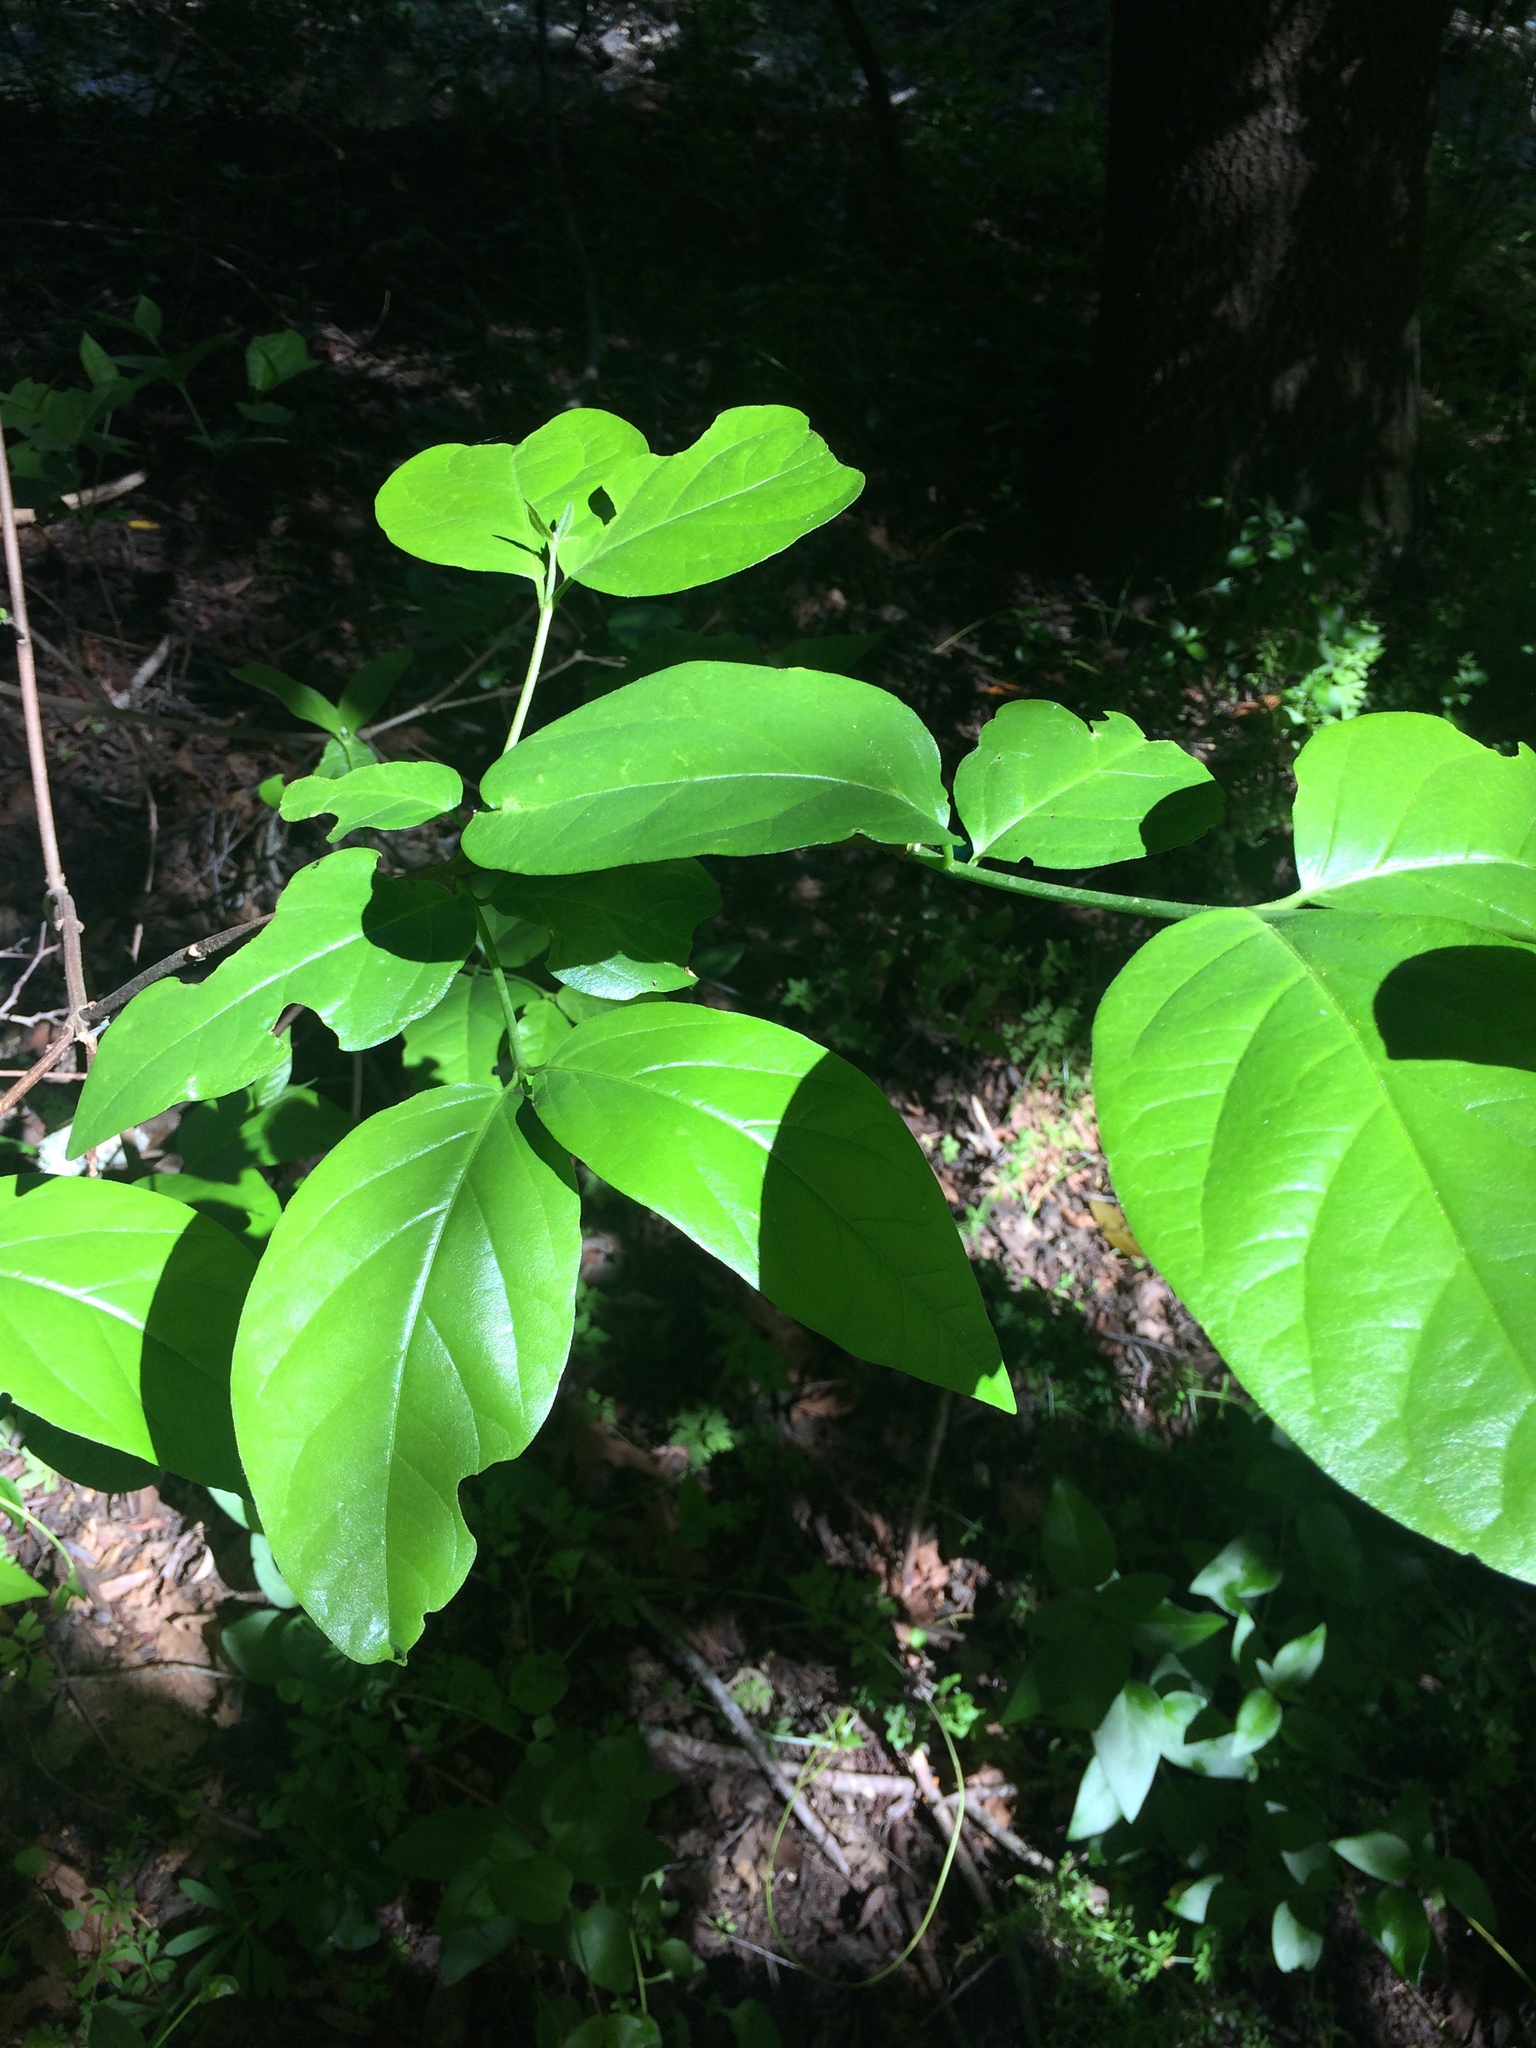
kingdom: Plantae
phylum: Tracheophyta
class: Magnoliopsida
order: Laurales
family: Calycanthaceae
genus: Calycanthus
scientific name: Calycanthus occidentalis
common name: California spicebush
